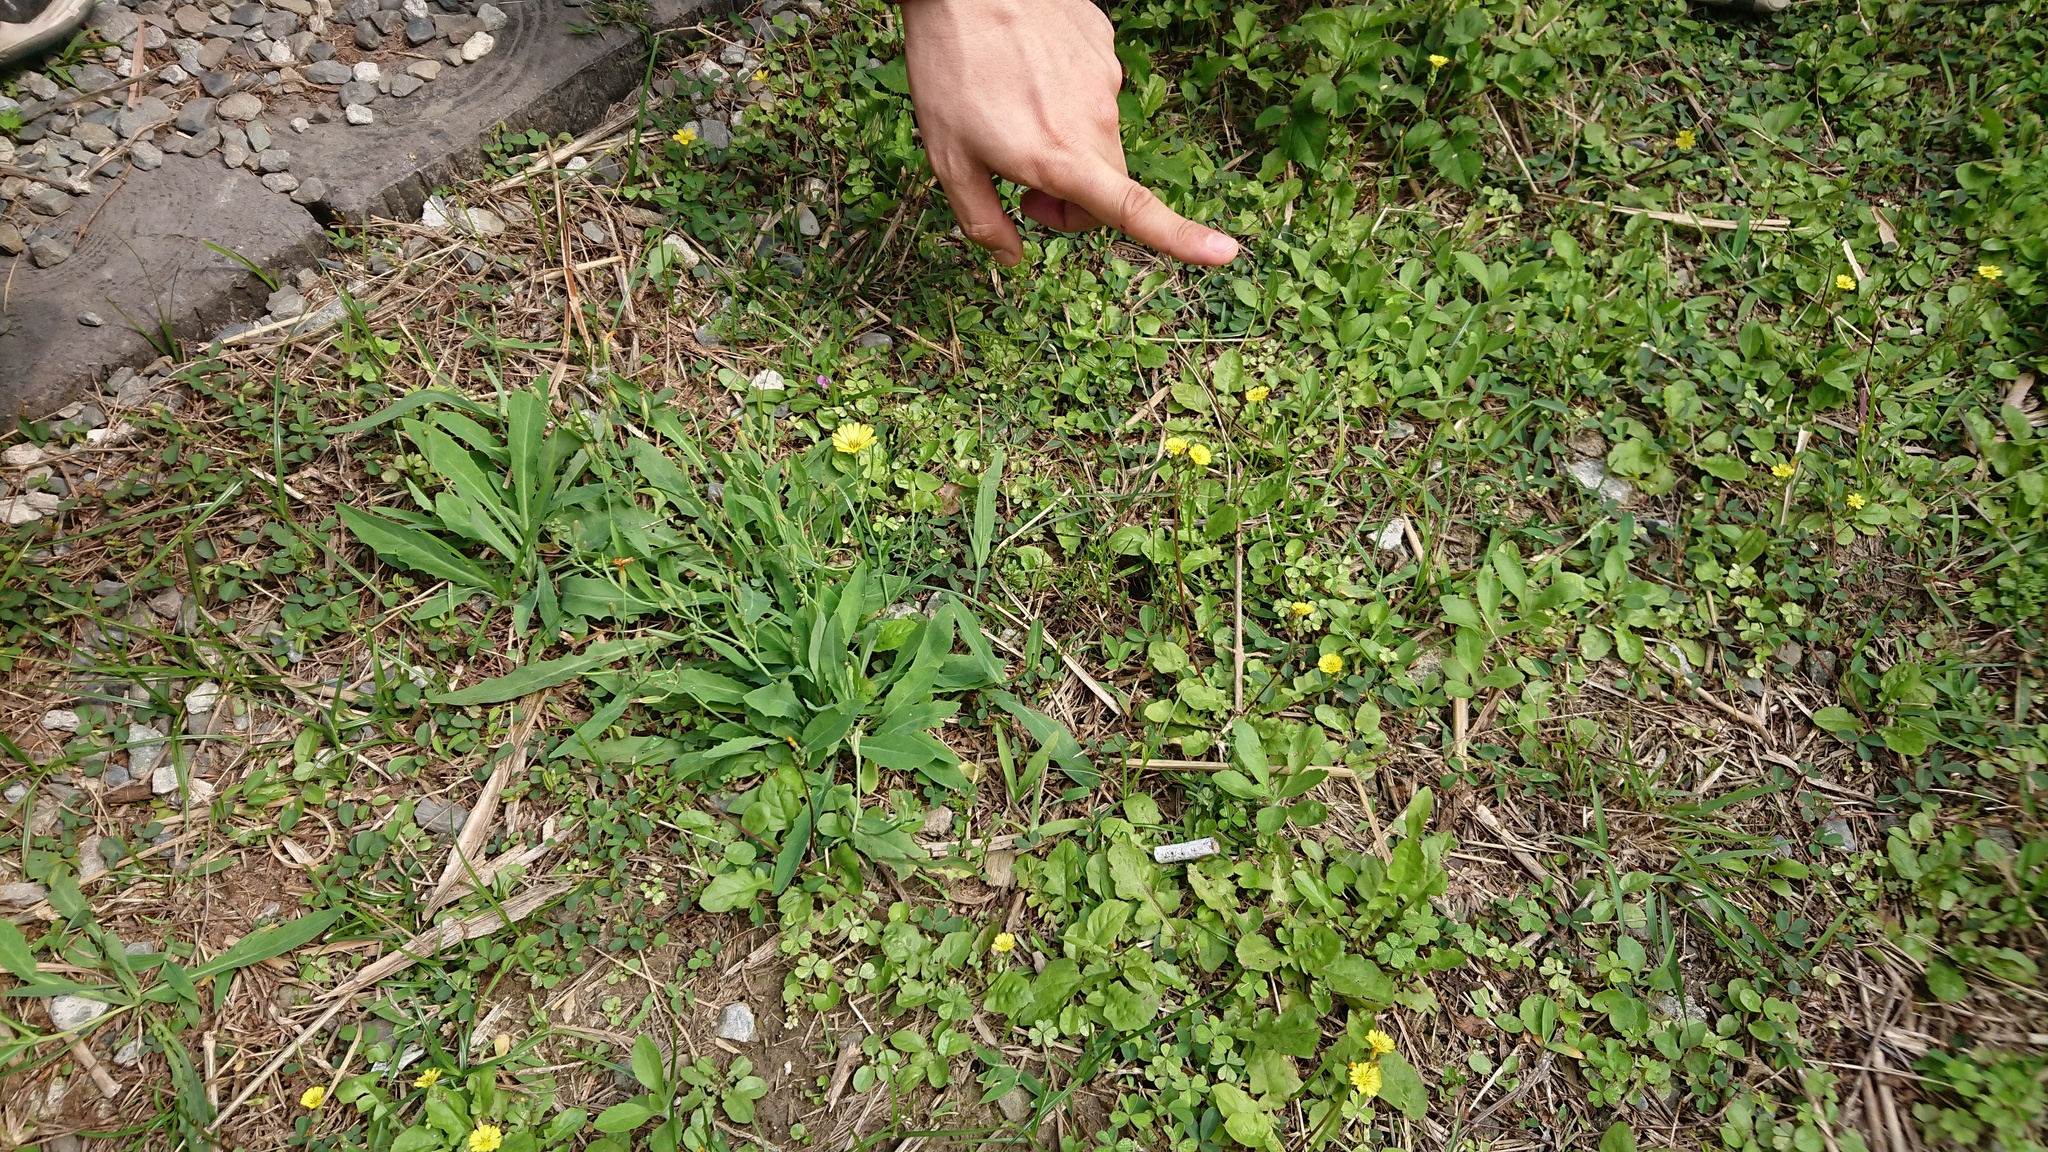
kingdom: Plantae
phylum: Tracheophyta
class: Magnoliopsida
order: Asterales
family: Asteraceae
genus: Ixeris
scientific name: Ixeris chinensis
